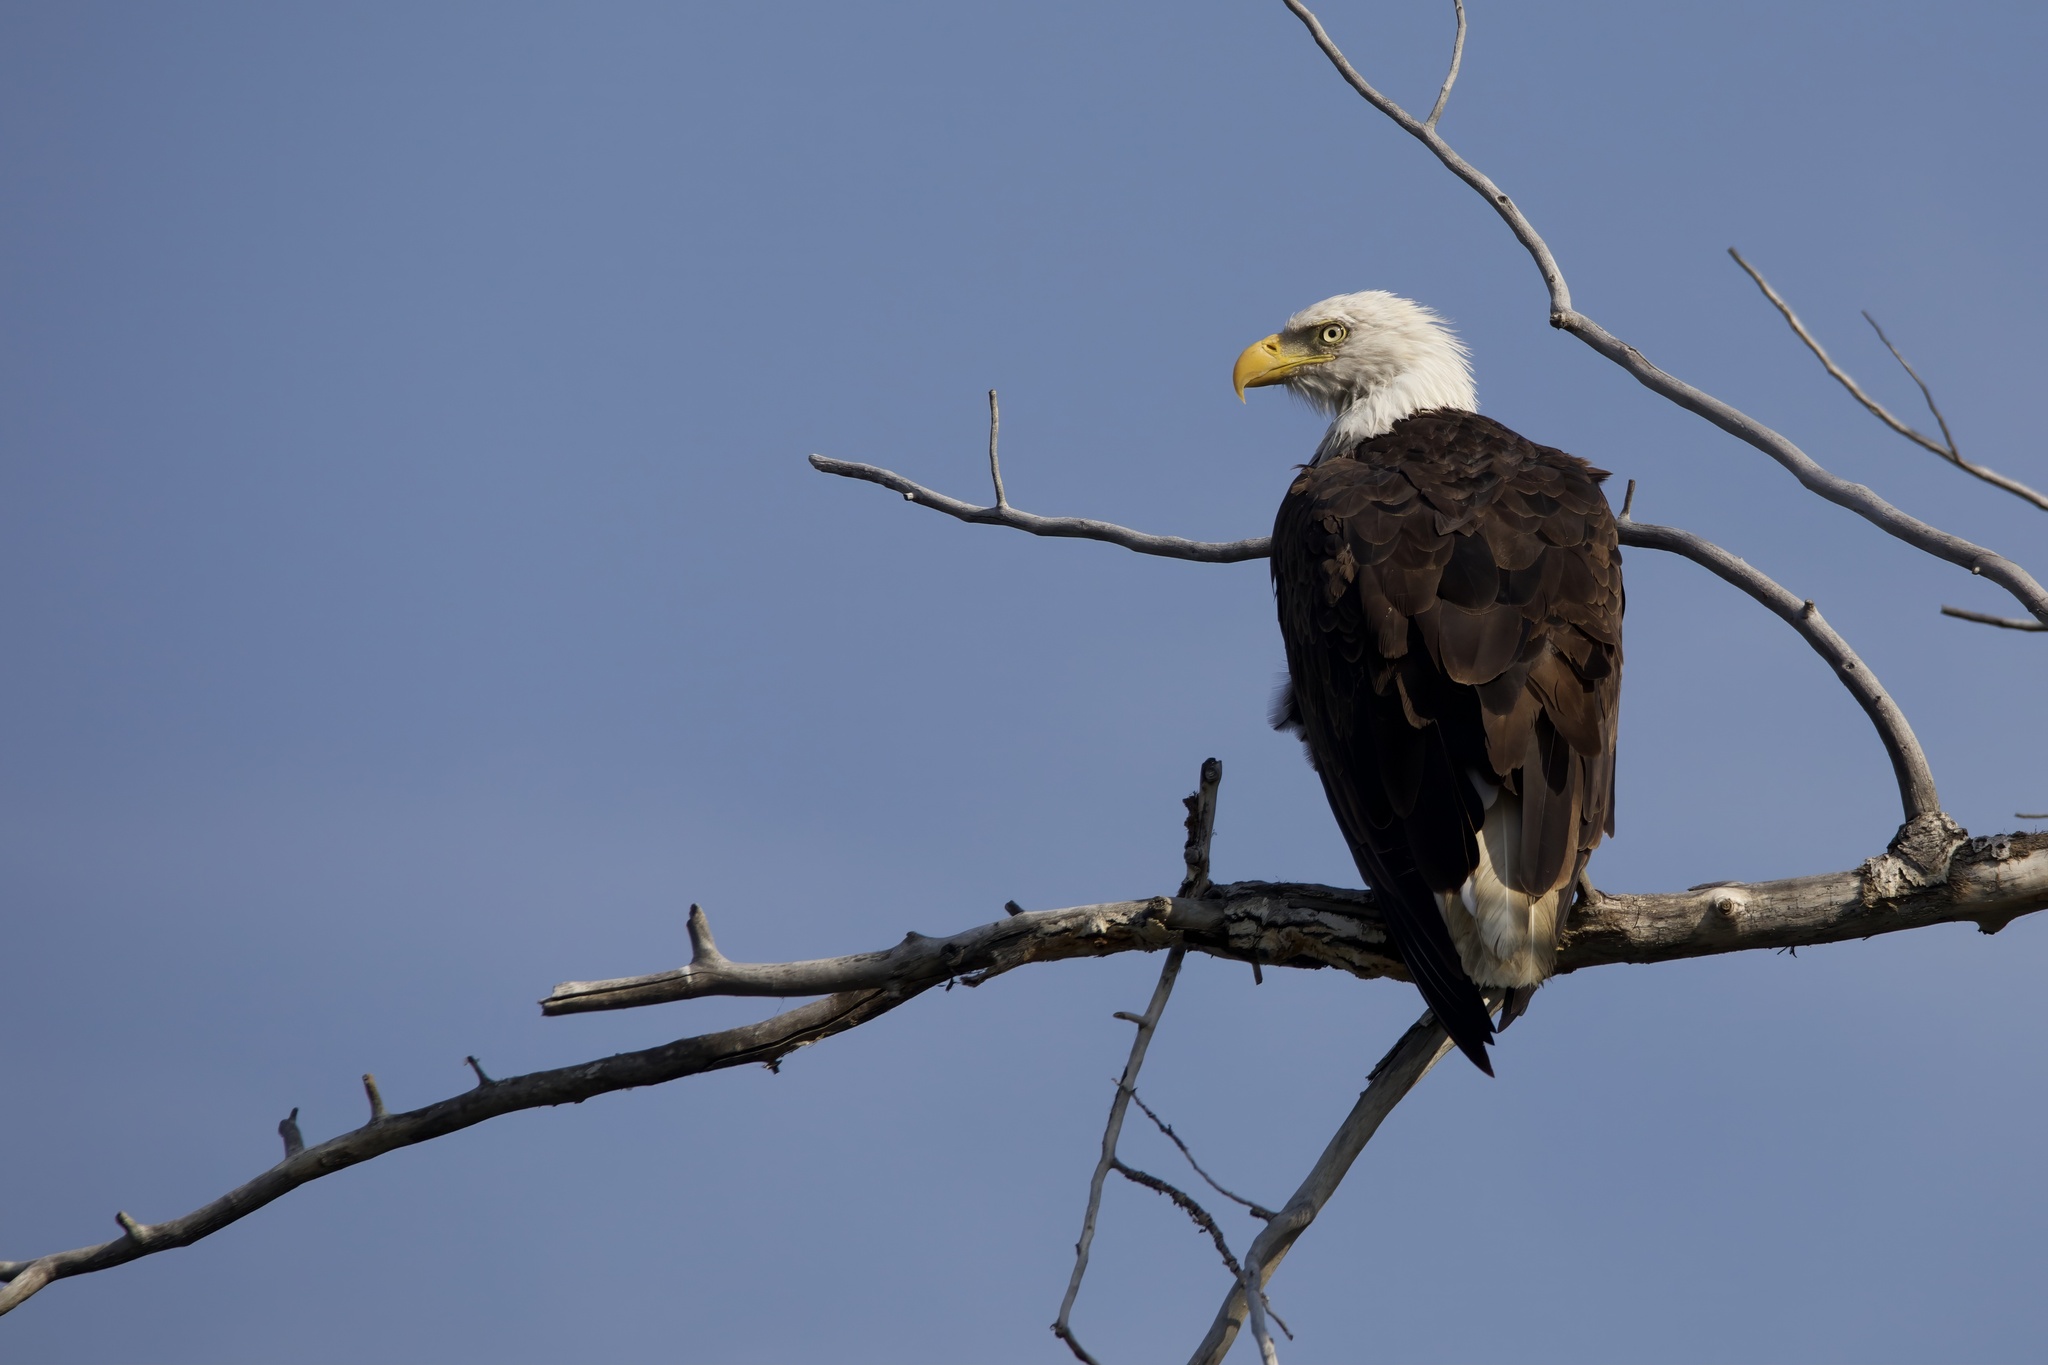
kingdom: Animalia
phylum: Chordata
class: Aves
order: Accipitriformes
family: Accipitridae
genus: Haliaeetus
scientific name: Haliaeetus leucocephalus
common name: Bald eagle
